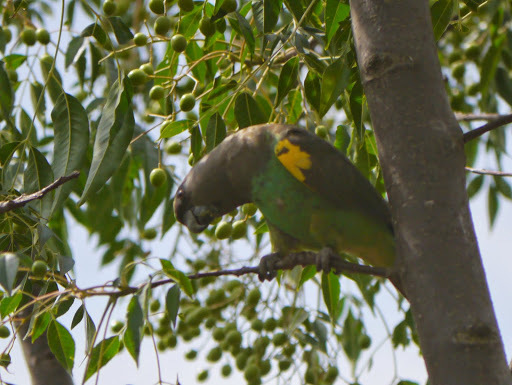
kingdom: Animalia
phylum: Chordata
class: Aves
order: Psittaciformes
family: Psittacidae
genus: Poicephalus
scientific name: Poicephalus meyeri
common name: Meyer's parrot
